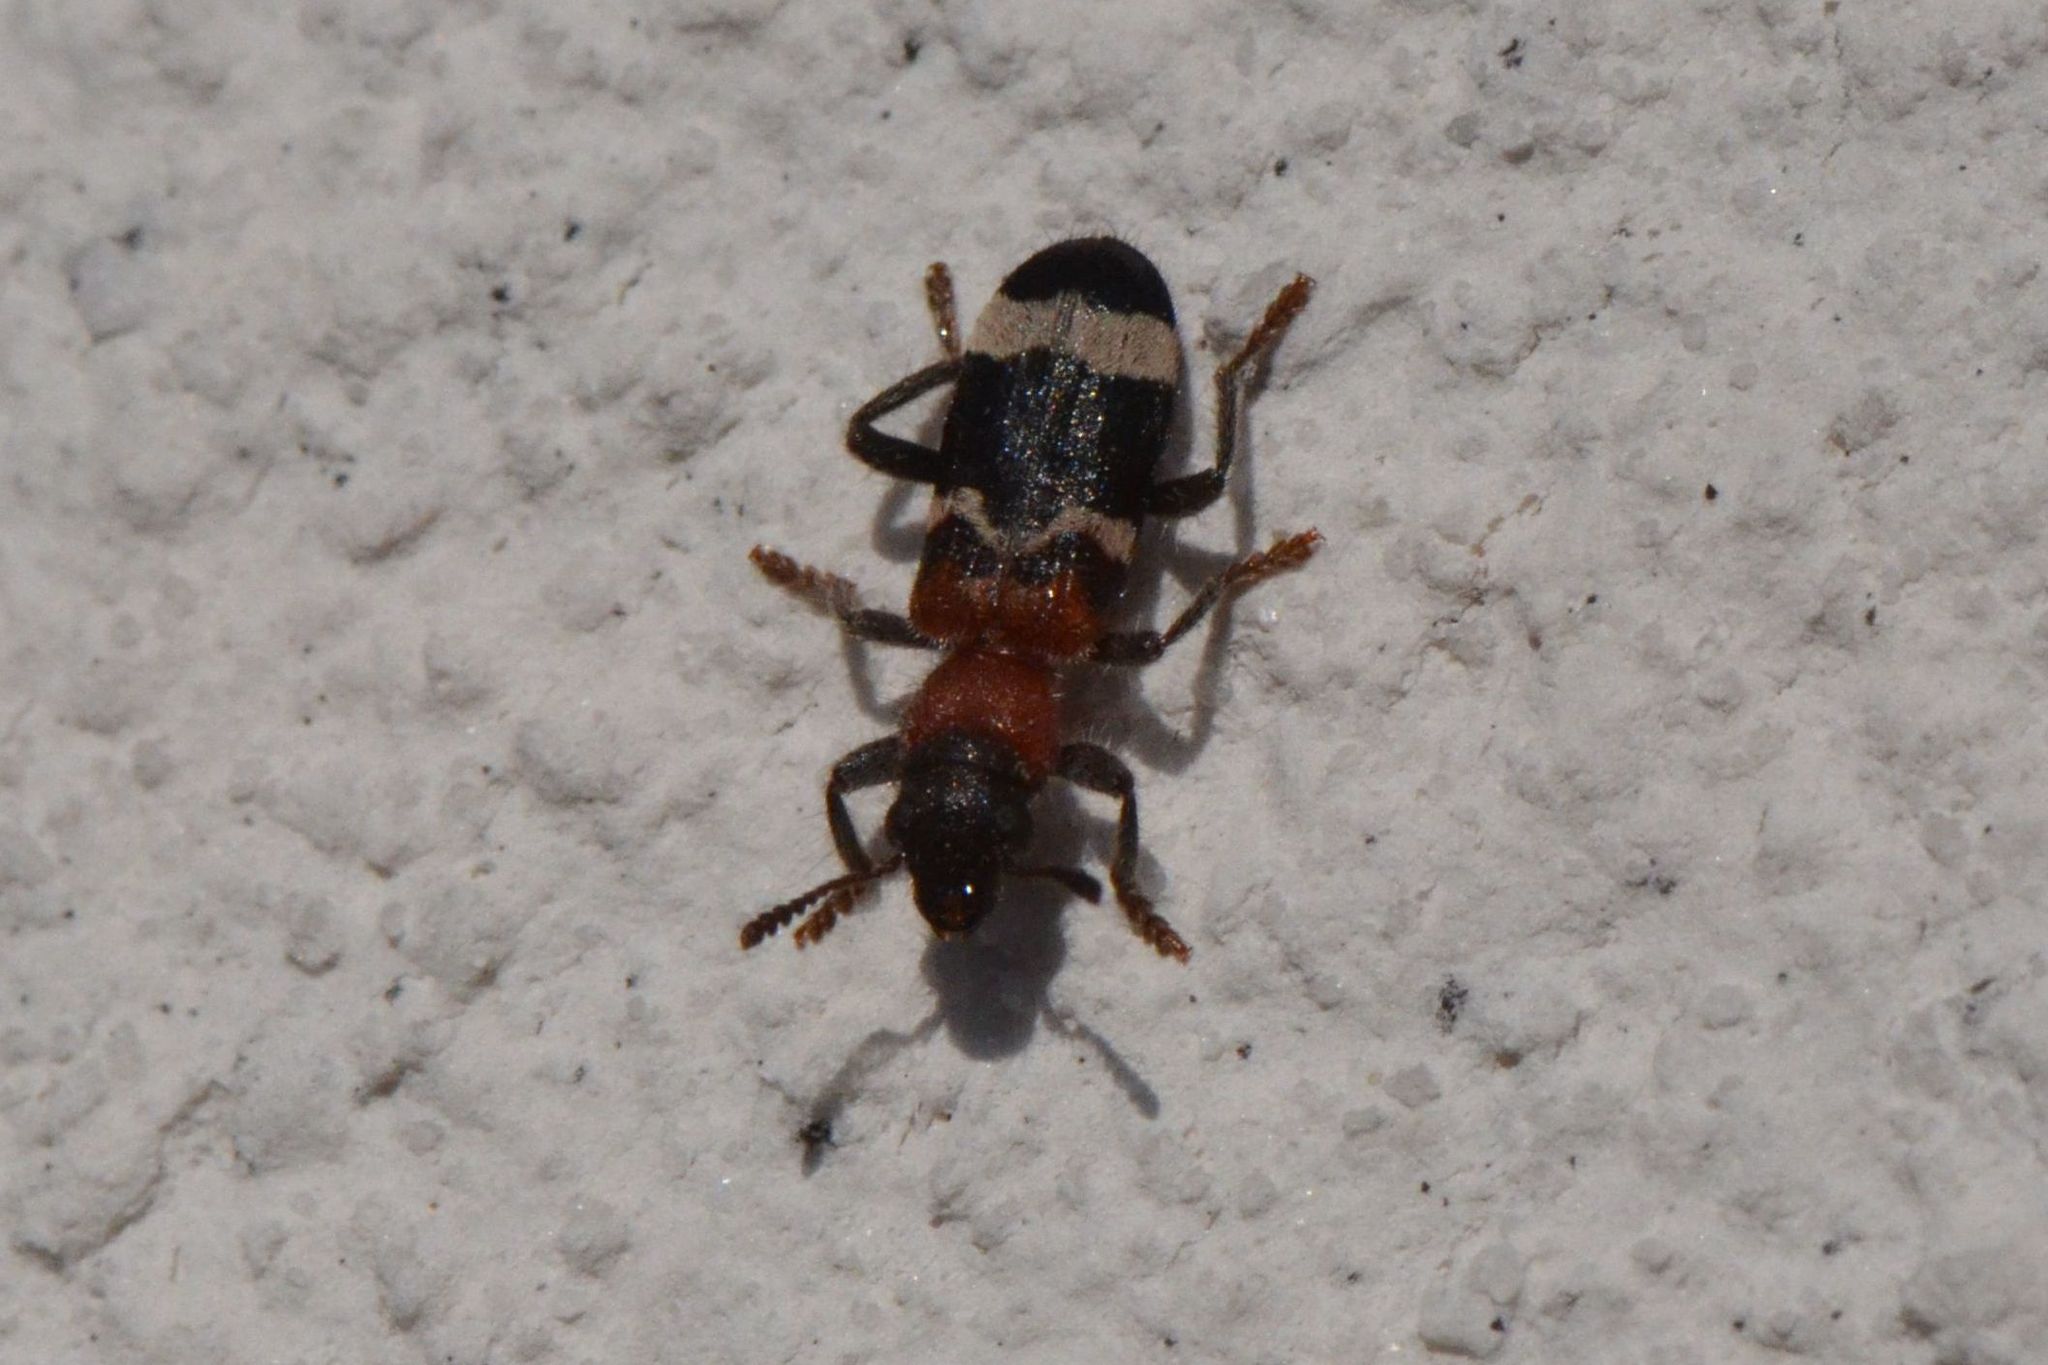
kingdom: Animalia
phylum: Arthropoda
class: Insecta
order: Coleoptera
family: Cleridae
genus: Thanasimus
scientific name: Thanasimus formicarius
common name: Ant beetle
